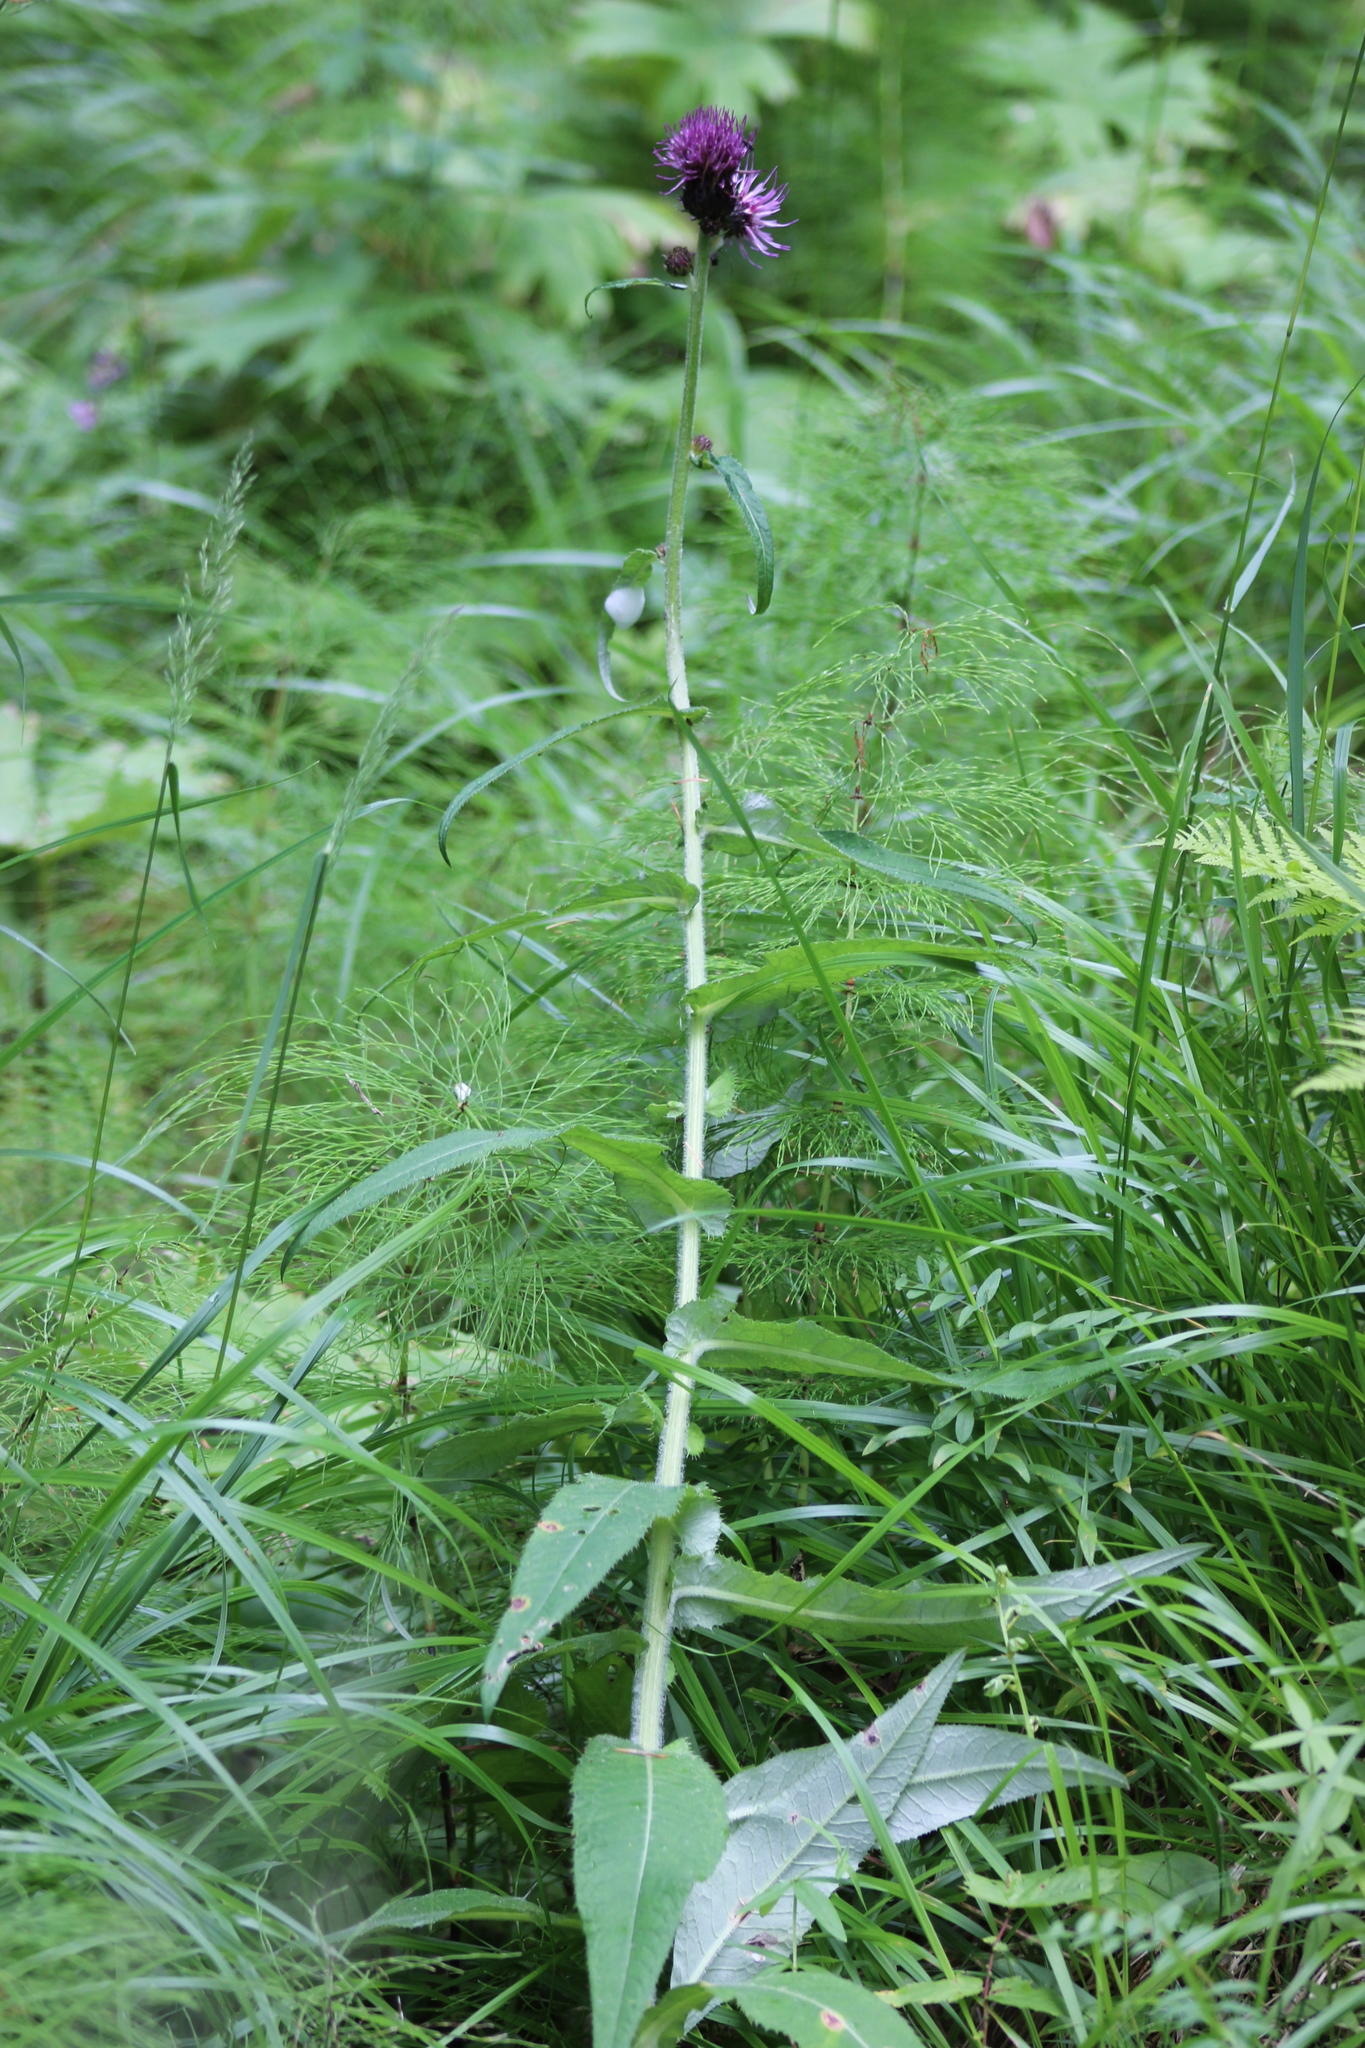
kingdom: Plantae
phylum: Tracheophyta
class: Magnoliopsida
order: Asterales
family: Asteraceae
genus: Cirsium
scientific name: Cirsium heterophyllum
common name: Melancholy thistle
